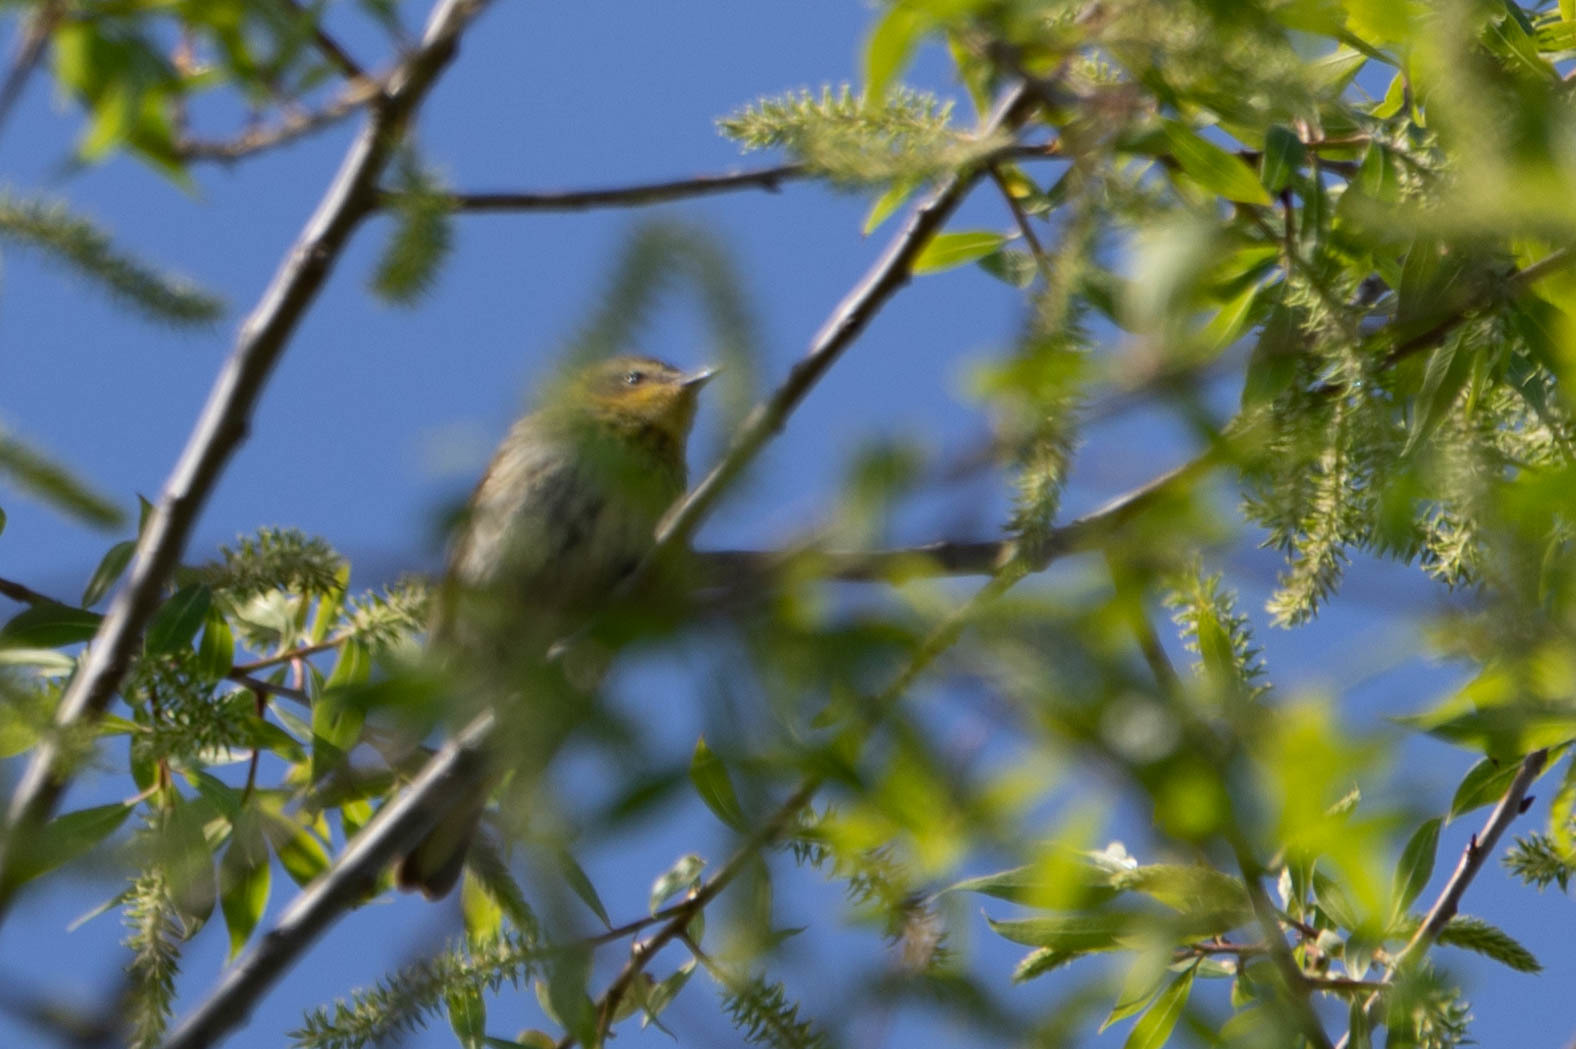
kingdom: Animalia
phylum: Chordata
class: Aves
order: Passeriformes
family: Parulidae
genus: Setophaga
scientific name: Setophaga tigrina
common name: Cape may warbler
